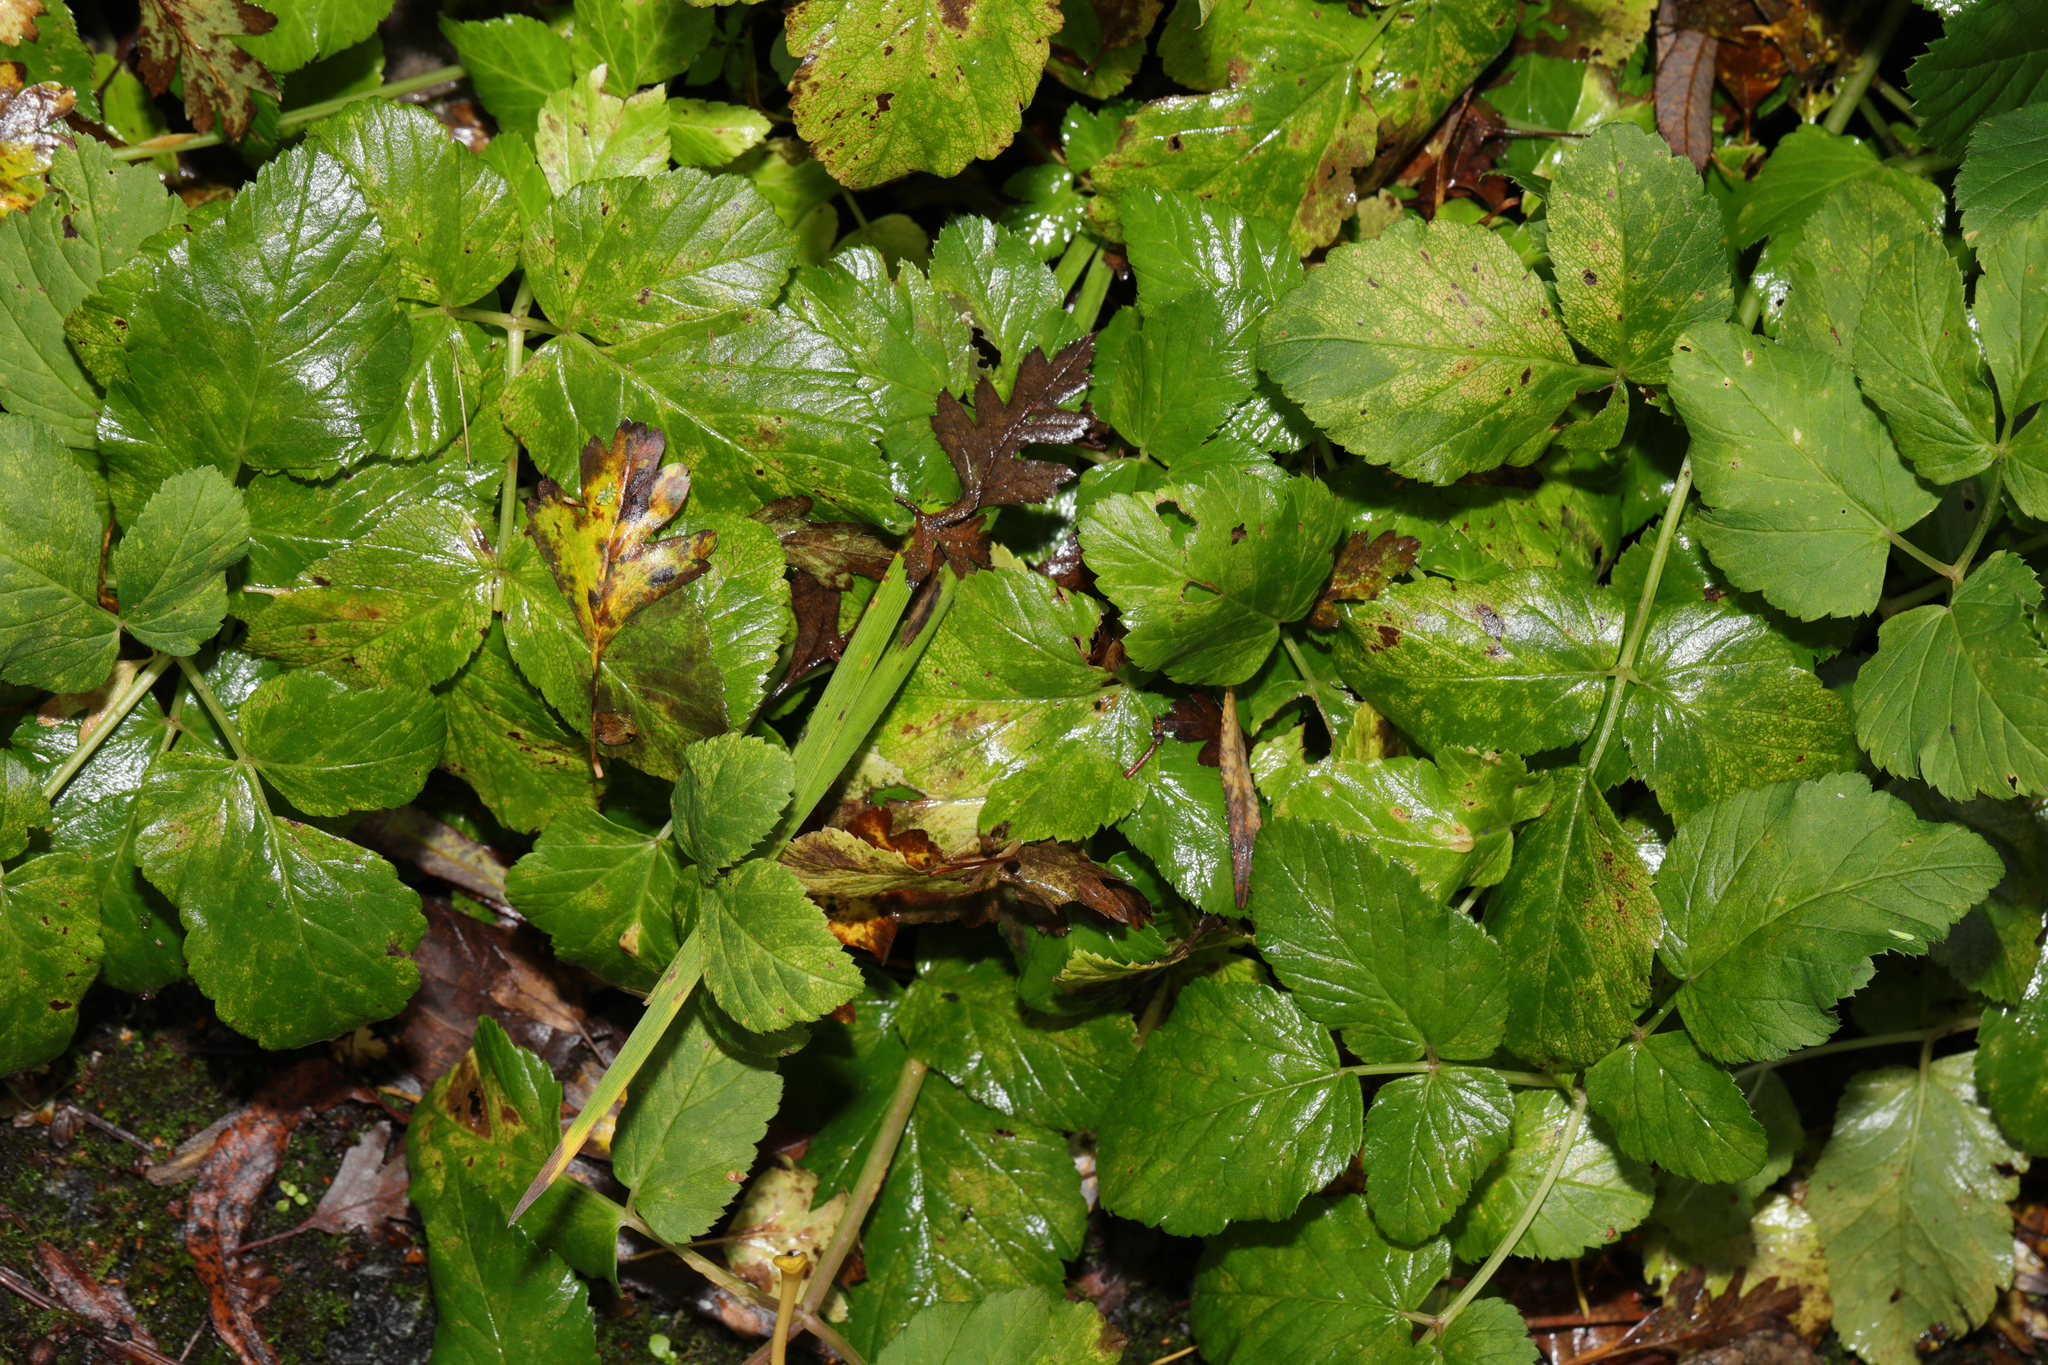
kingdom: Plantae
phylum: Tracheophyta
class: Magnoliopsida
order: Apiales
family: Apiaceae
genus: Aegopodium
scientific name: Aegopodium podagraria
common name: Ground-elder
